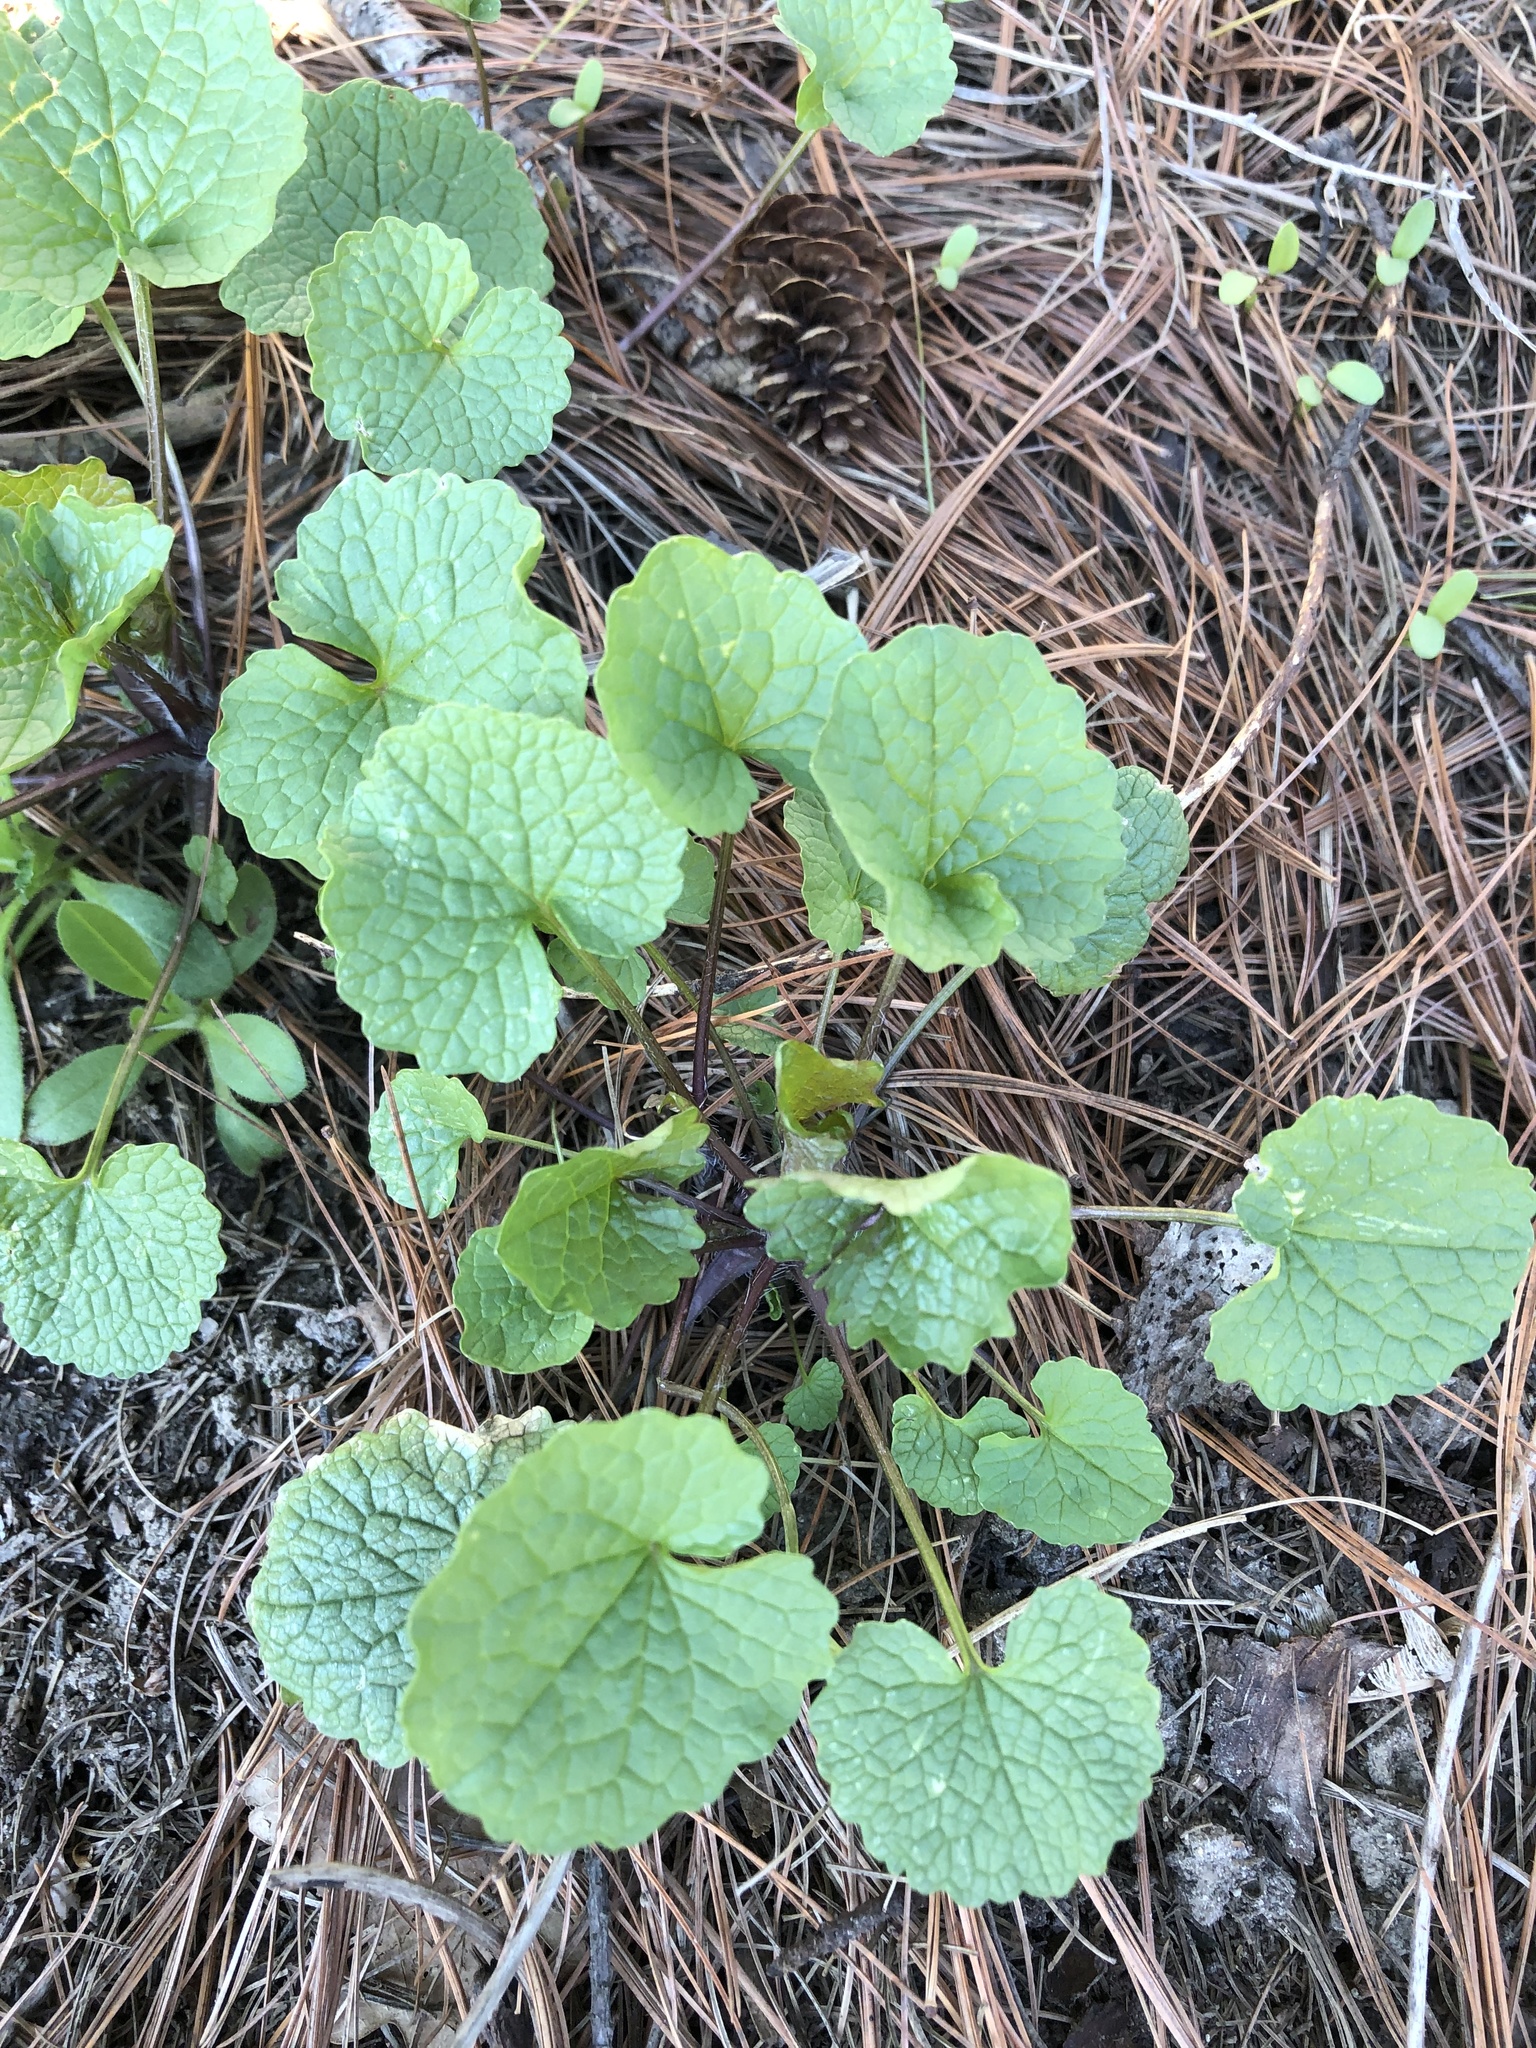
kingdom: Plantae
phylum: Tracheophyta
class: Magnoliopsida
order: Brassicales
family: Brassicaceae
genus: Alliaria
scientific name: Alliaria petiolata
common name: Garlic mustard
